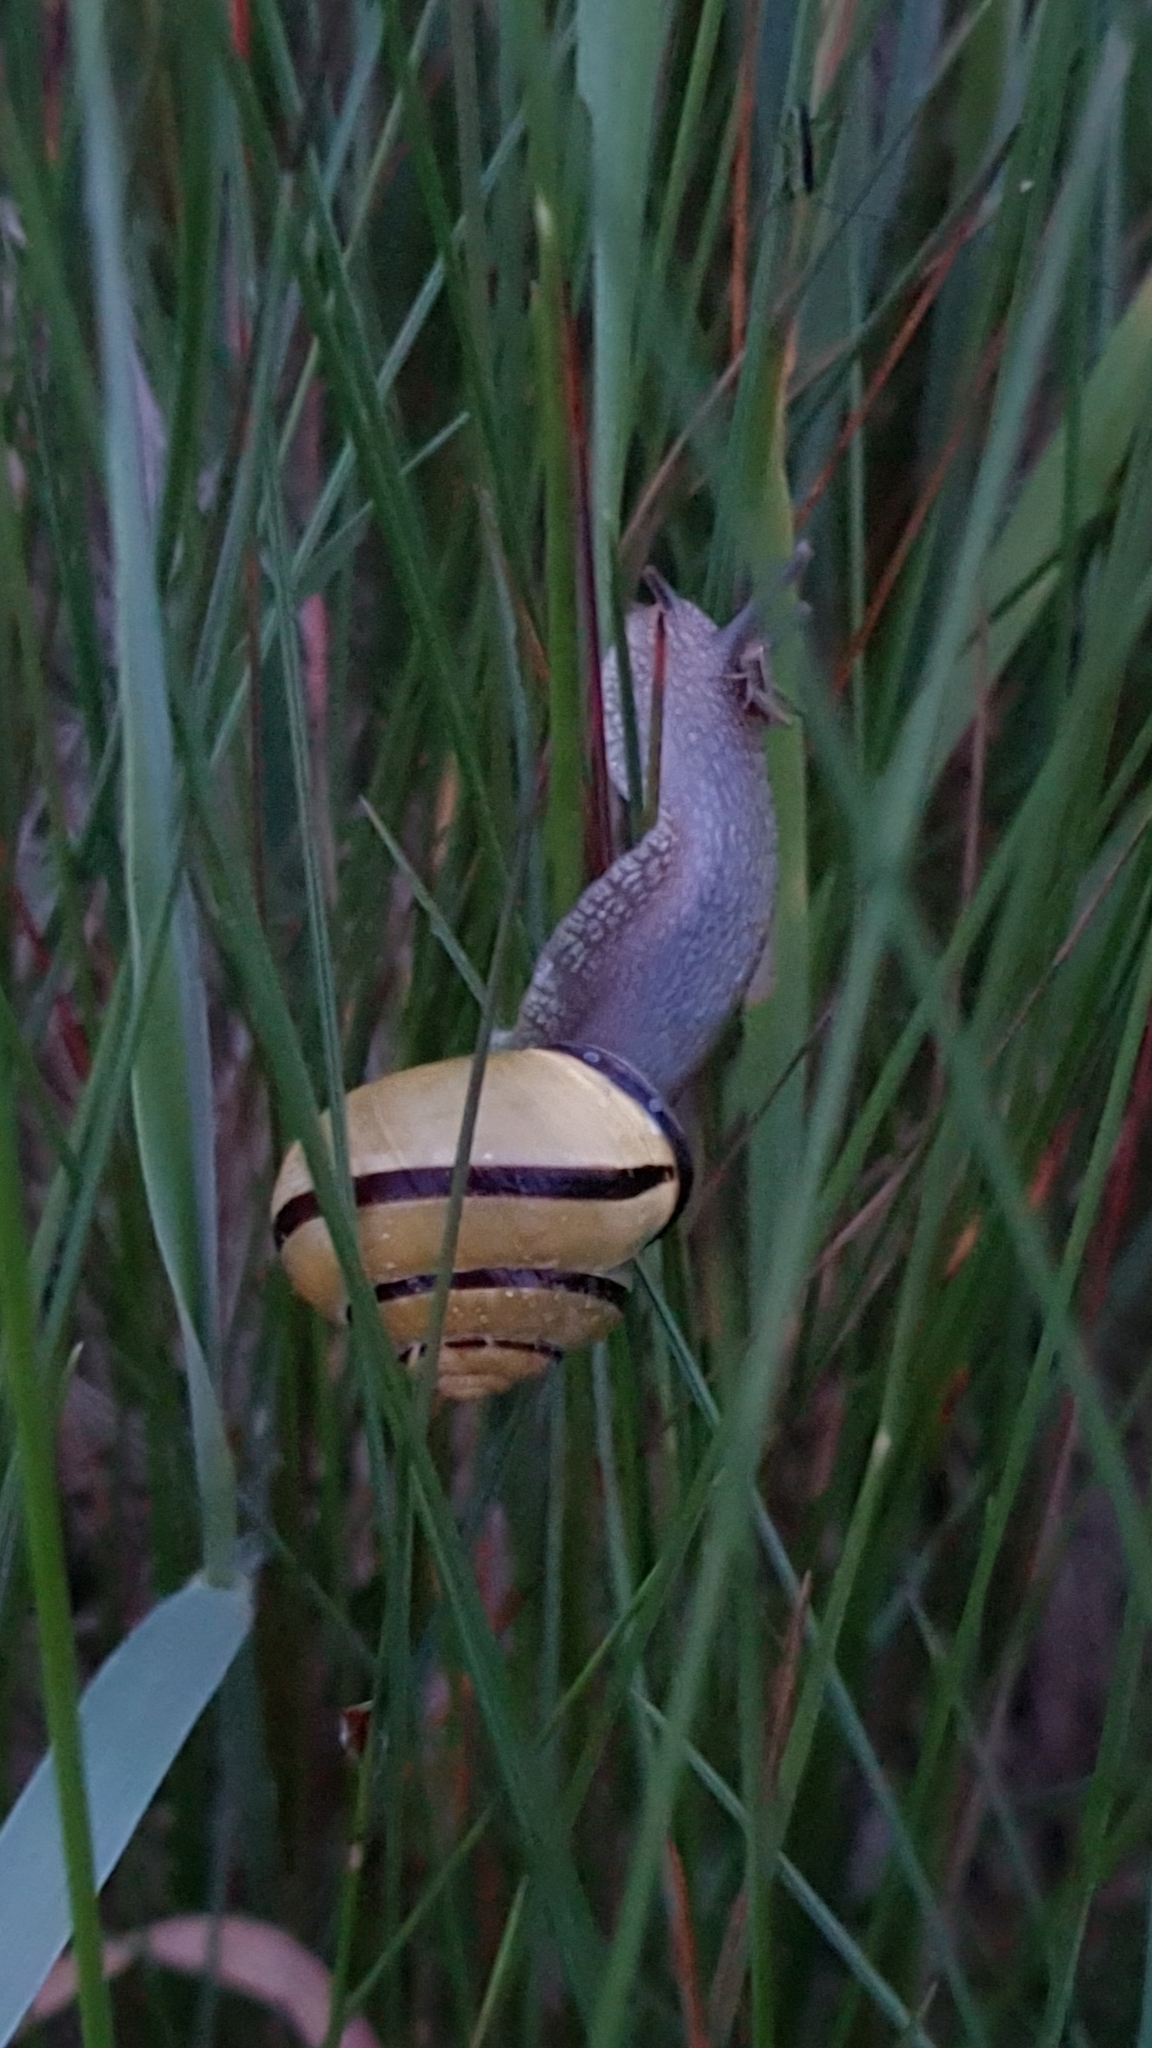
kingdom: Animalia
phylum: Mollusca
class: Gastropoda
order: Stylommatophora
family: Helicidae
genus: Cepaea
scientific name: Cepaea nemoralis
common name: Grovesnail
